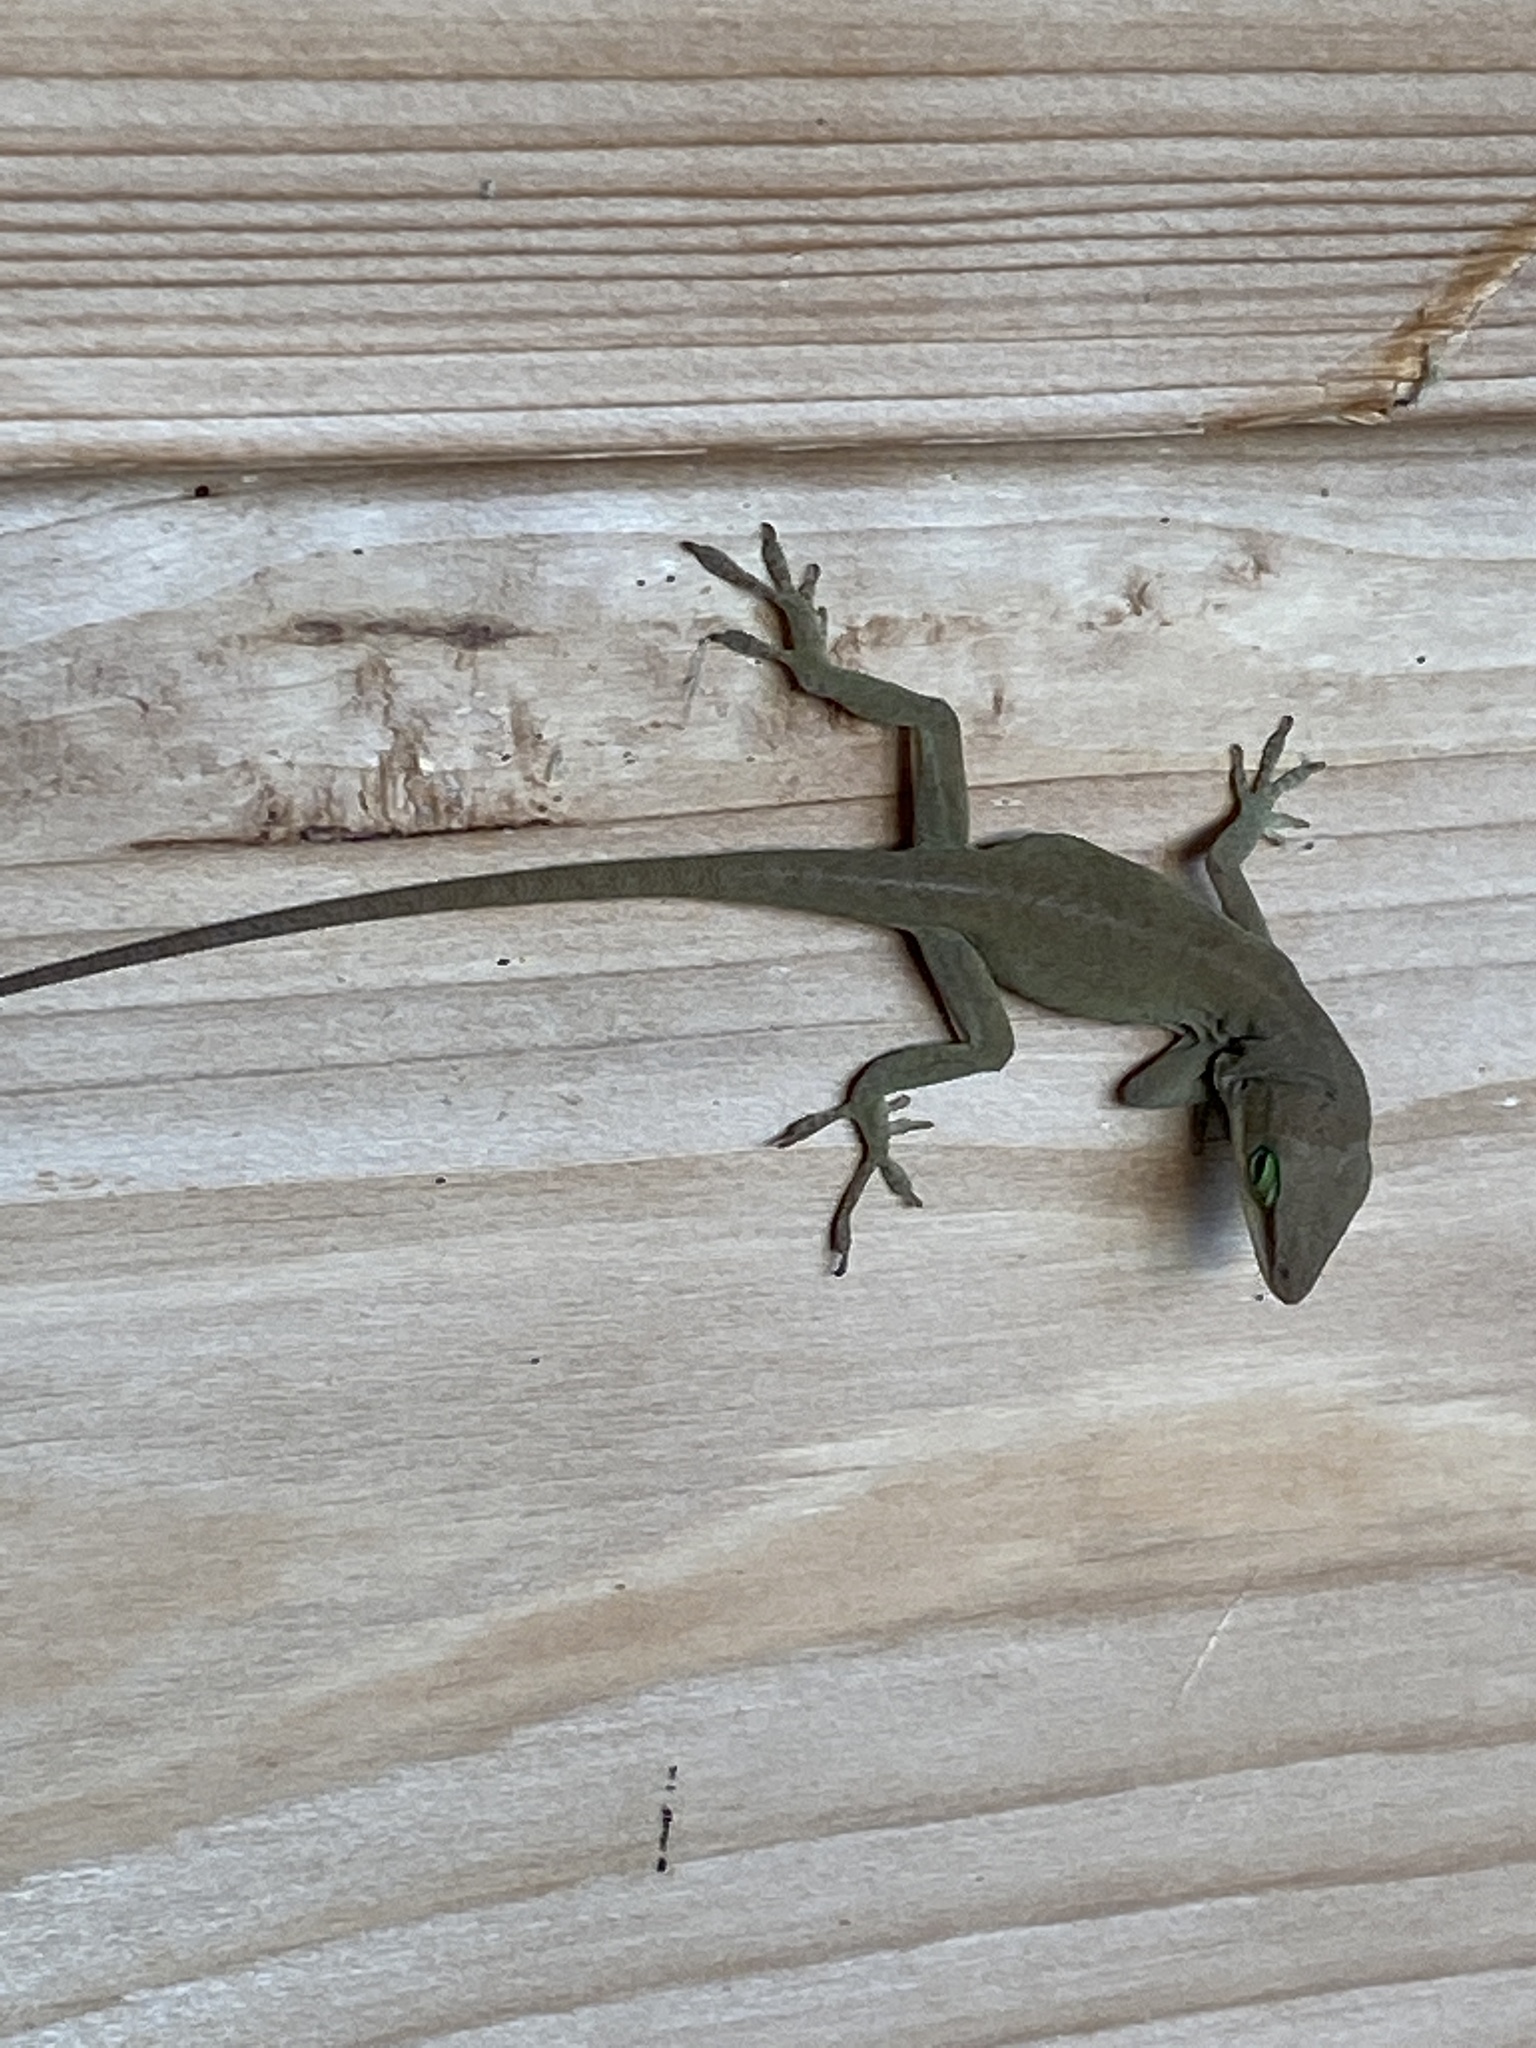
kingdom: Animalia
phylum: Chordata
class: Squamata
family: Dactyloidae
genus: Anolis
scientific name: Anolis carolinensis
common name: Green anole
